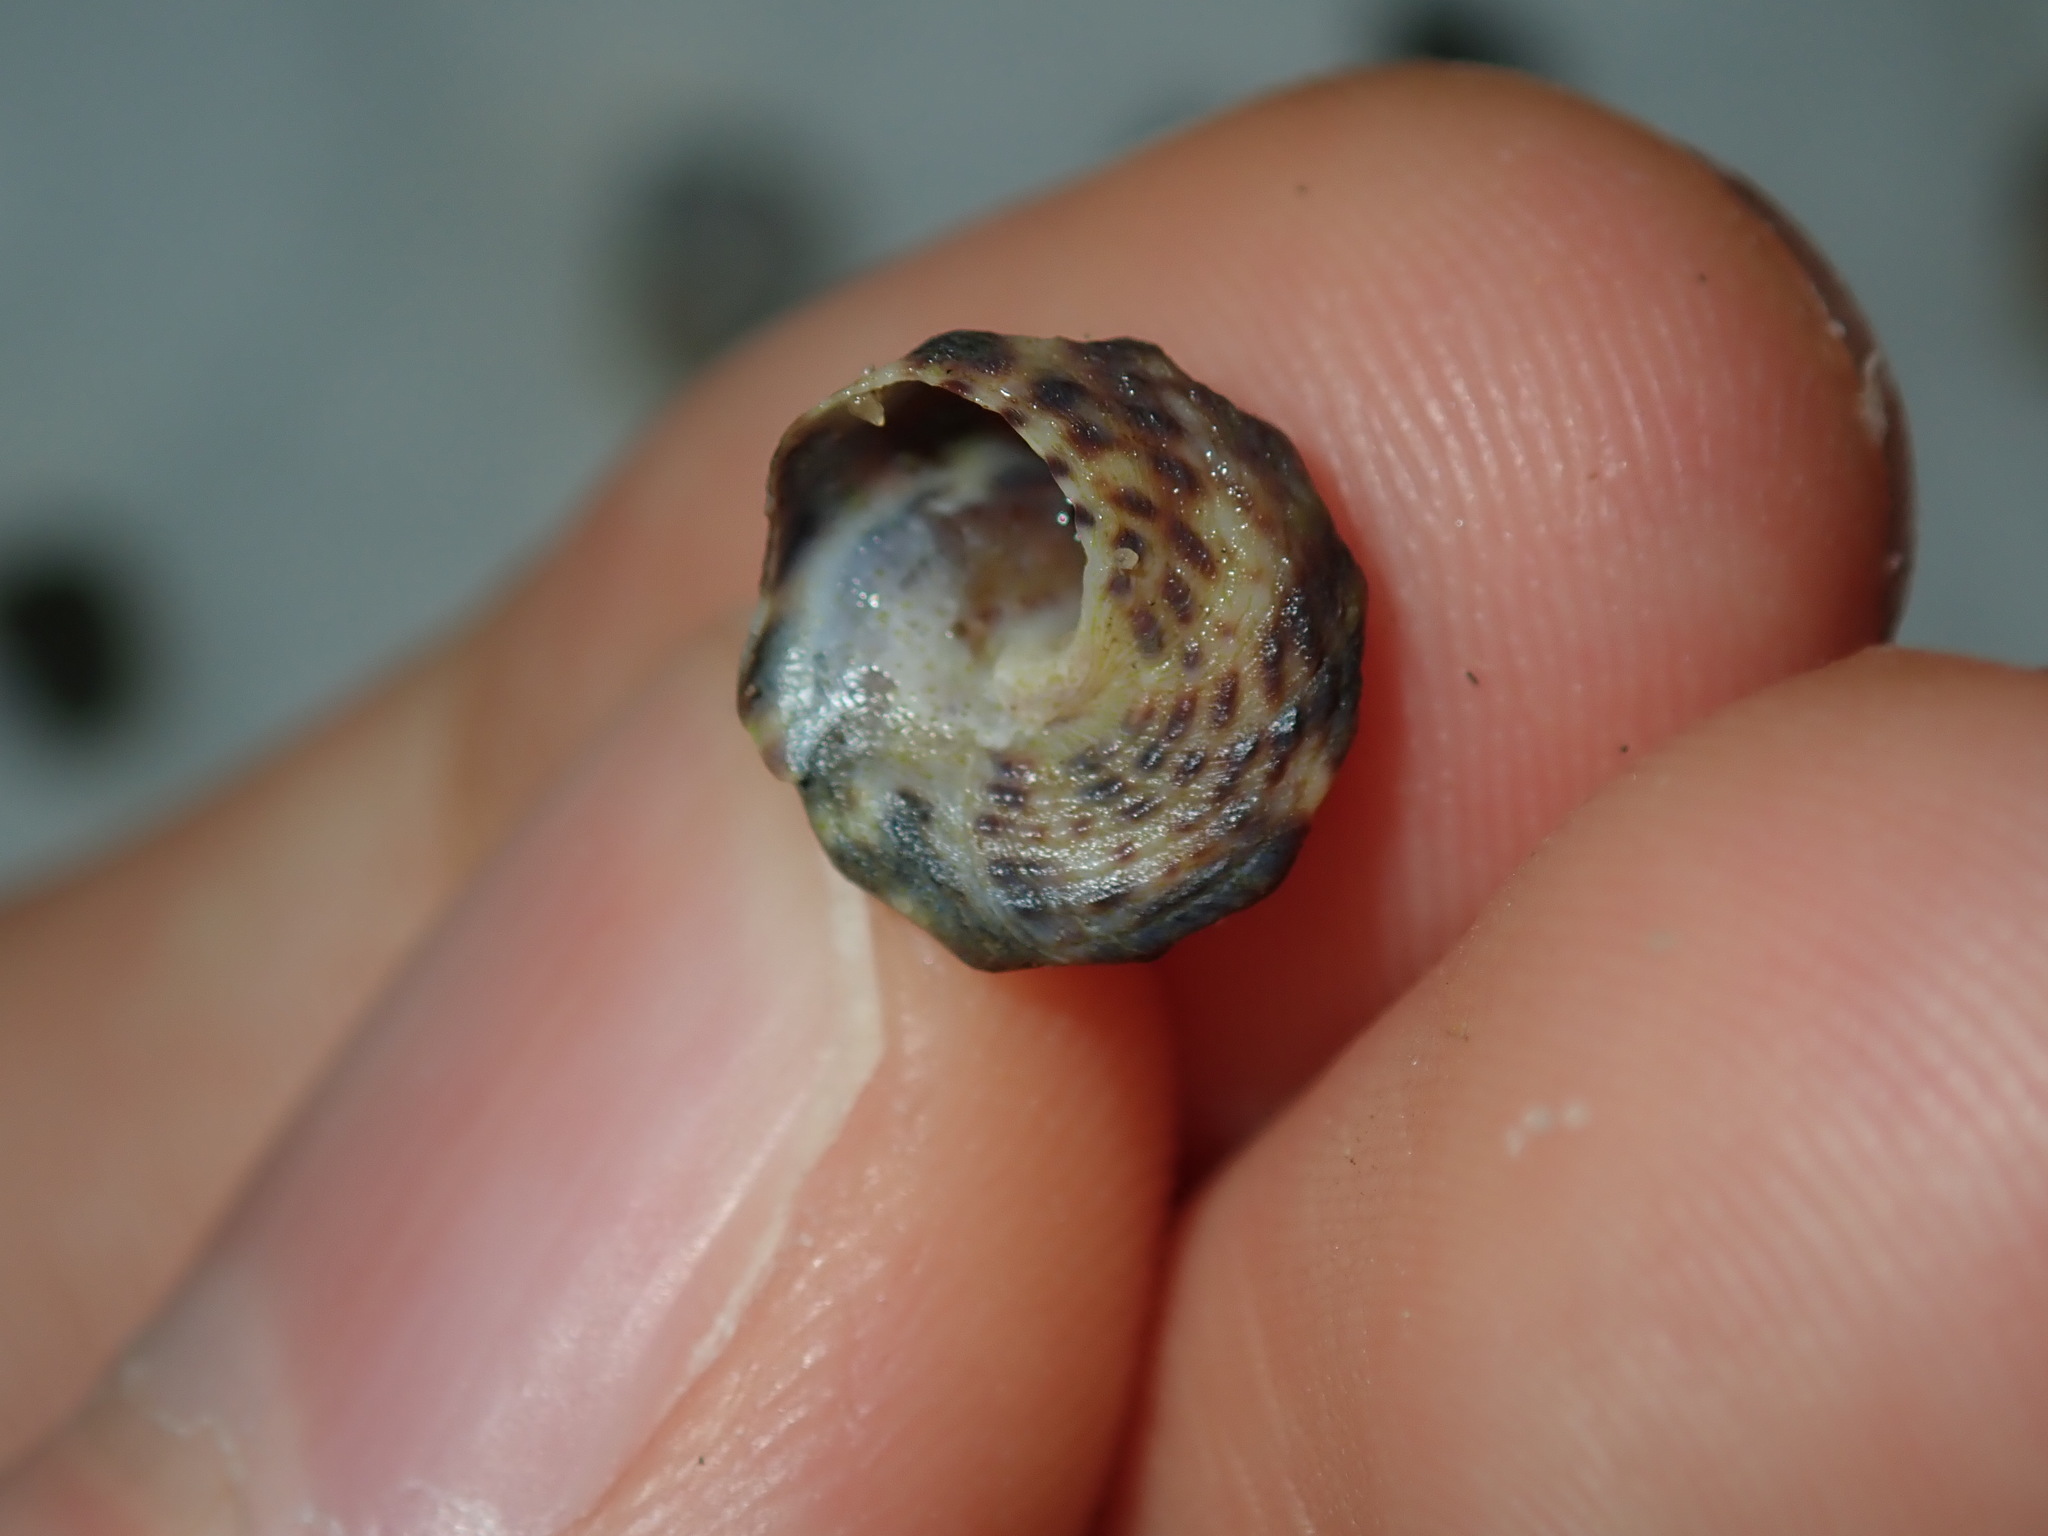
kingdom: Animalia
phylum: Mollusca
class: Gastropoda
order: Littorinimorpha
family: Littorinidae
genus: Bembicium
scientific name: Bembicium auratum
